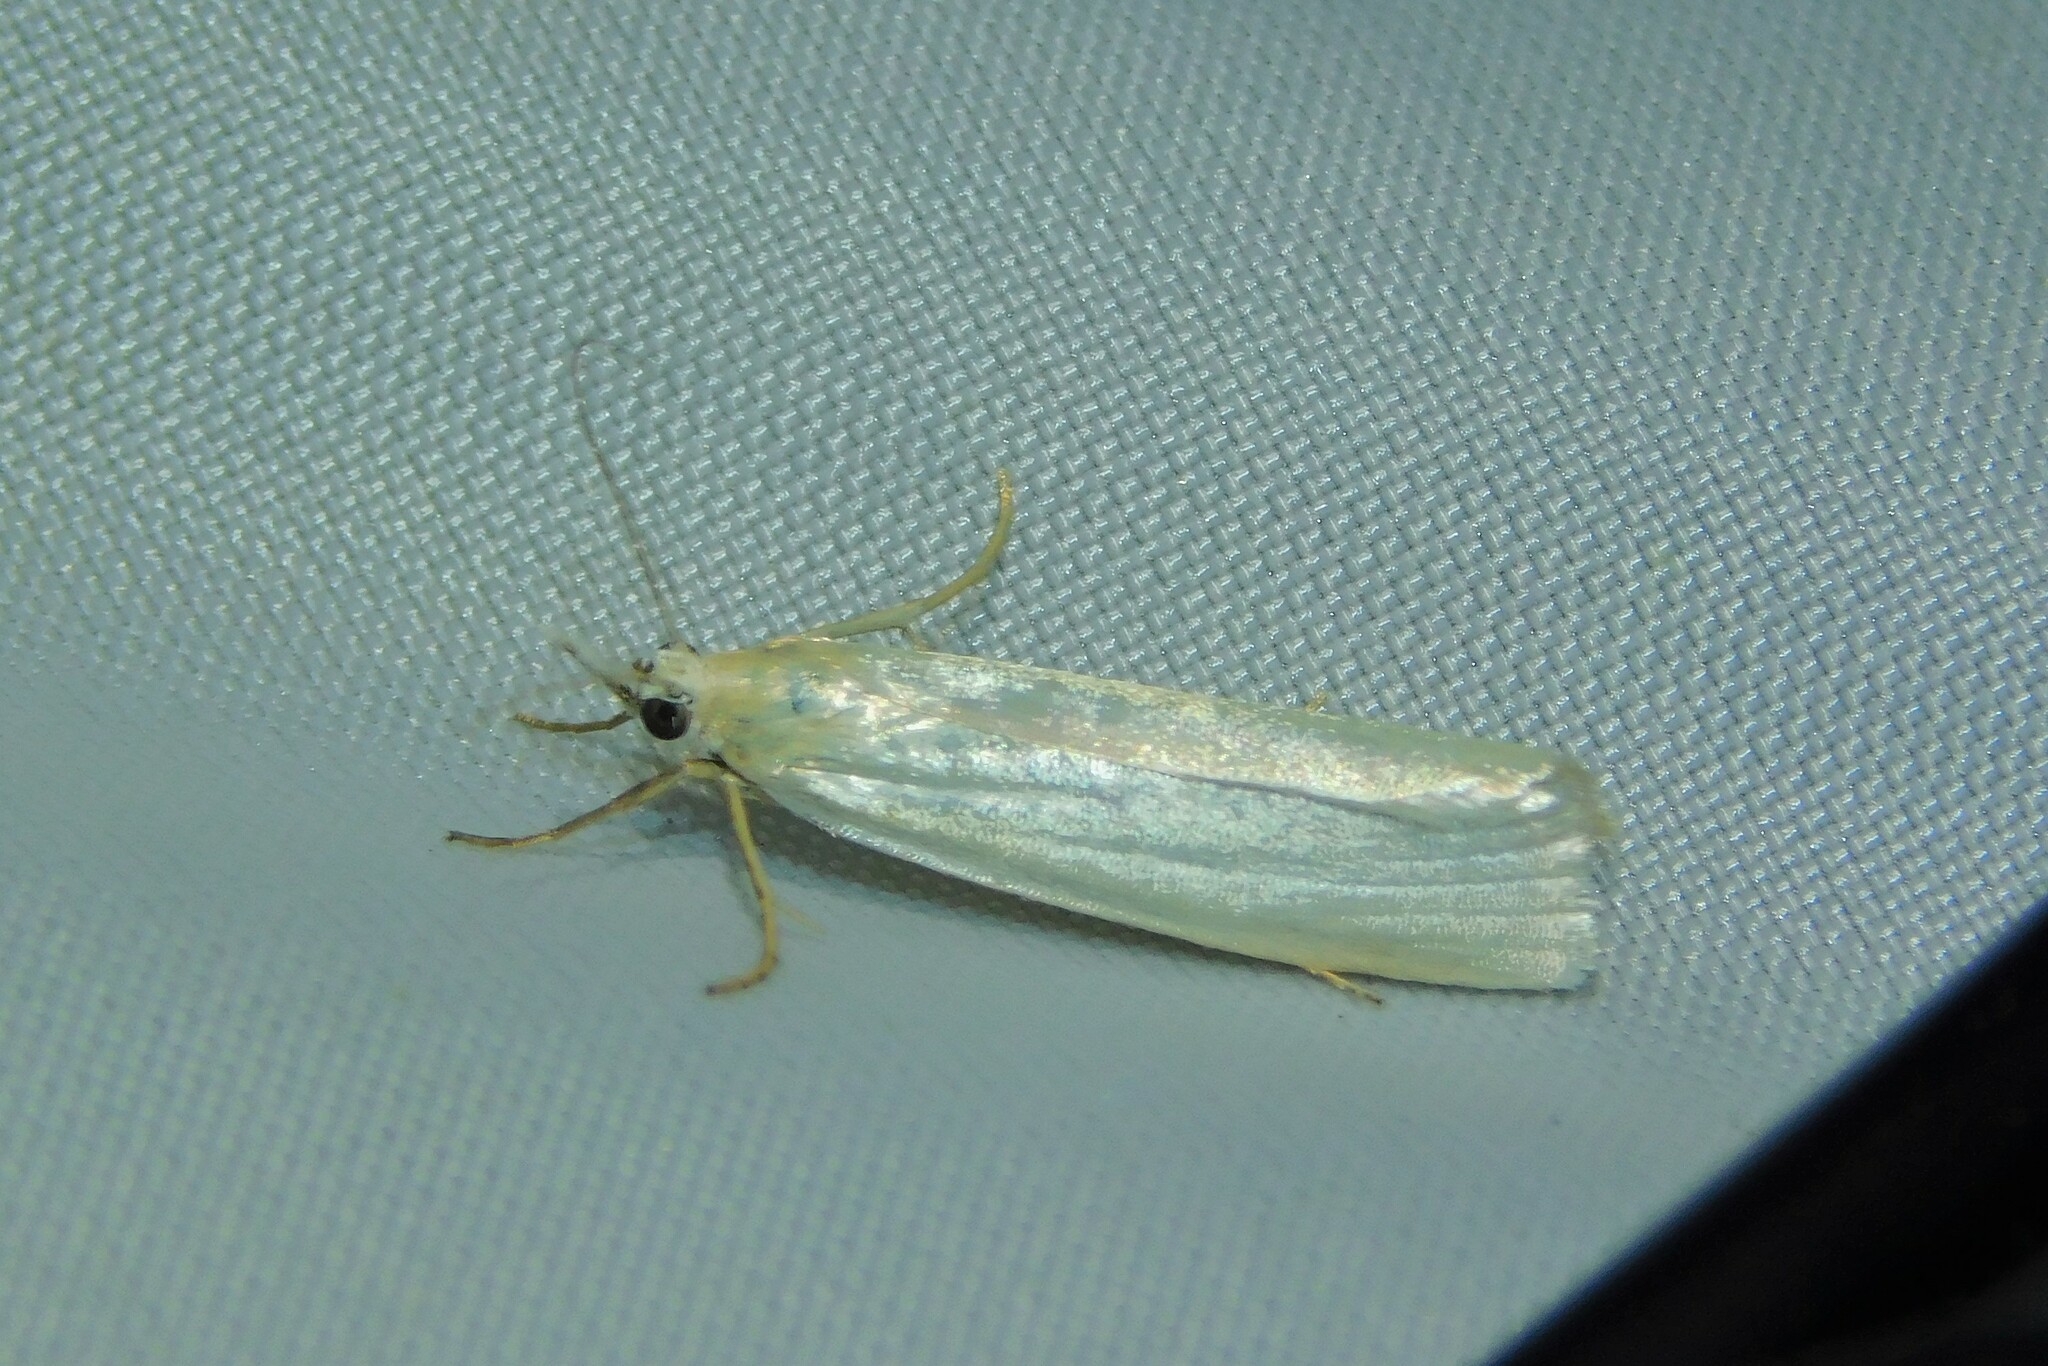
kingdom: Animalia
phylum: Arthropoda
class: Insecta
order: Lepidoptera
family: Crambidae
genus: Crambus
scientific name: Crambus perlellus
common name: Yellow satin veneer
